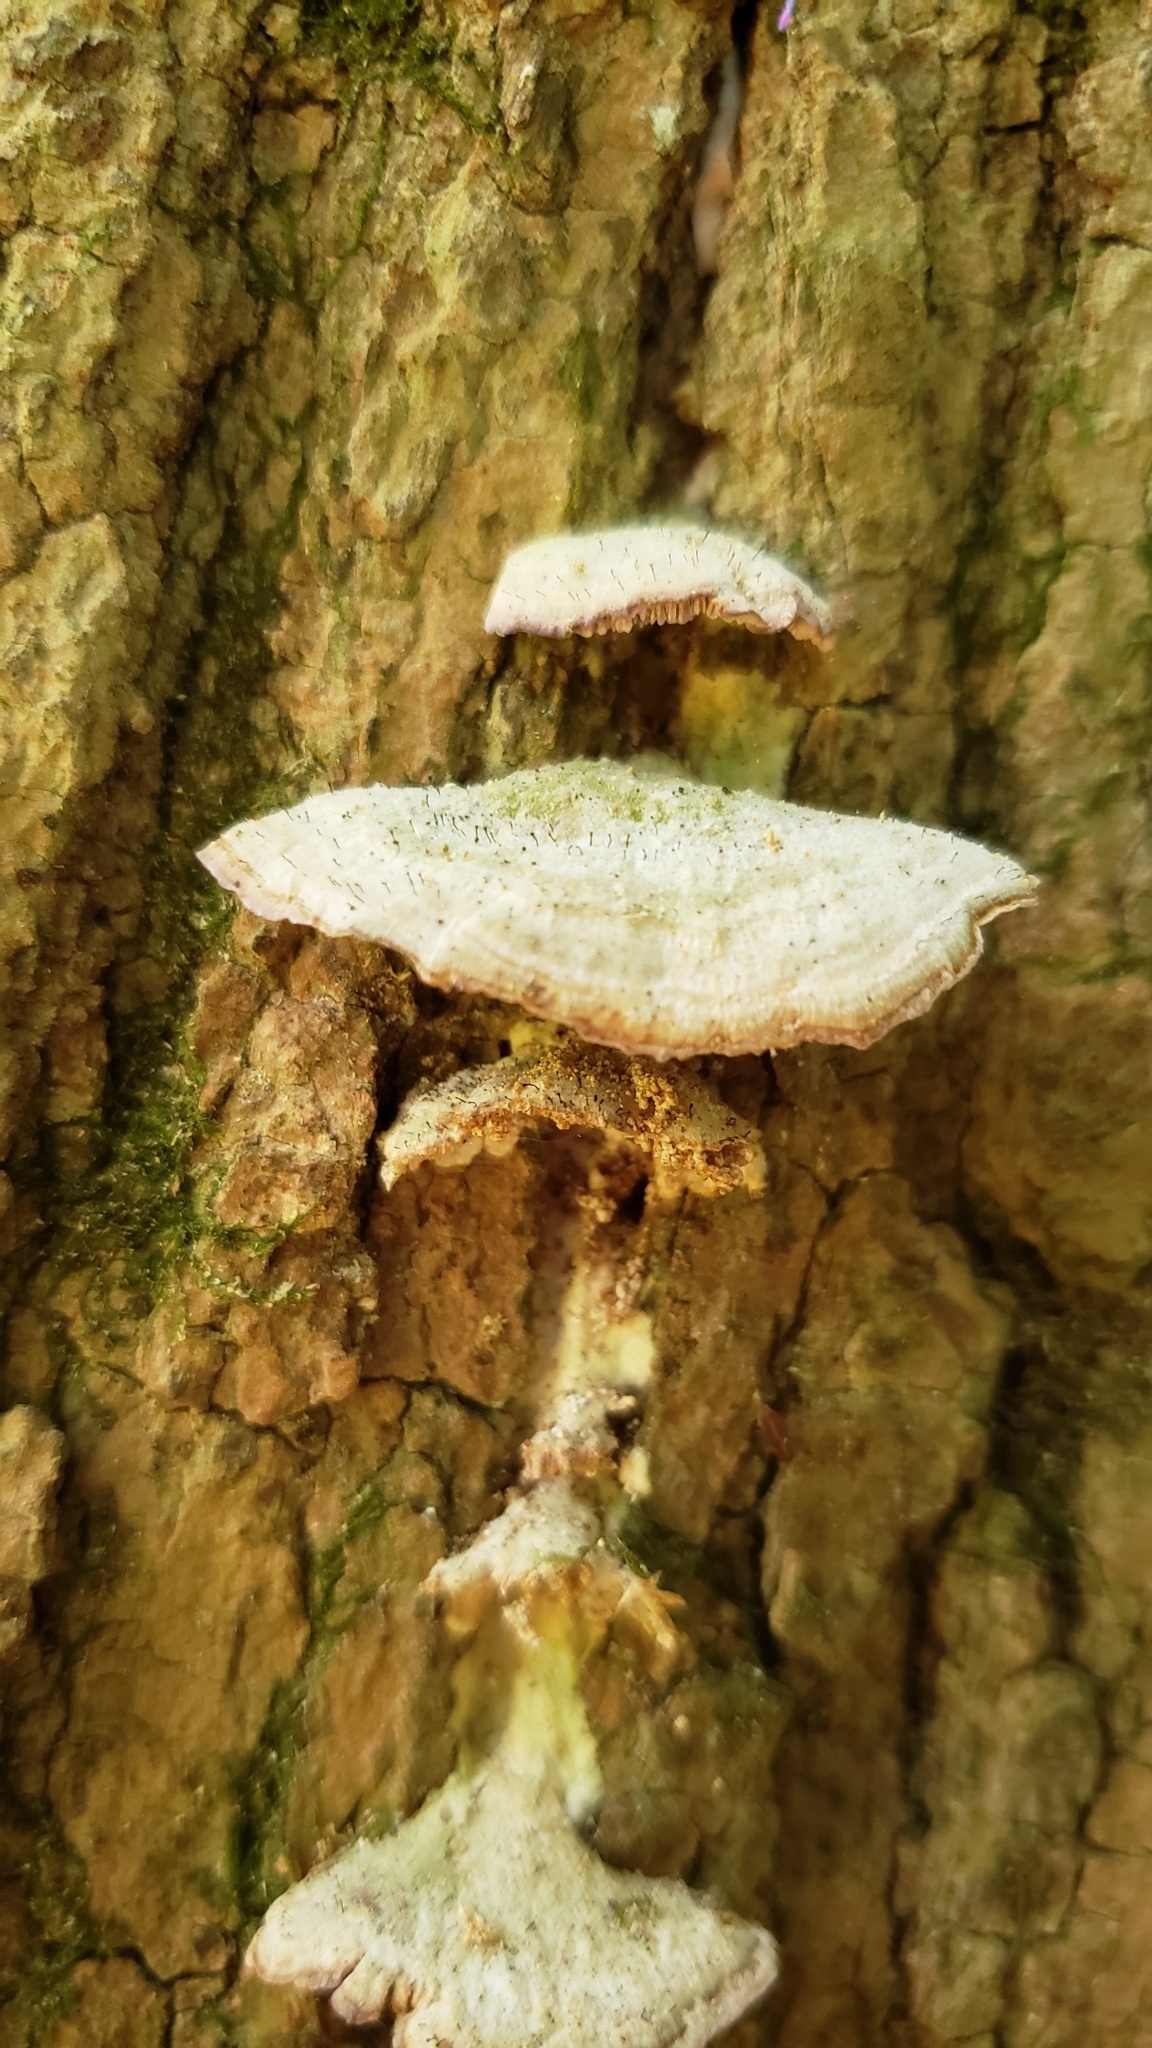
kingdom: Fungi
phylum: Ascomycota
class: Eurotiomycetes
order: Mycocaliciales
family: Mycocaliciaceae
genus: Phaeocalicium
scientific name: Phaeocalicium polyporaeum
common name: Fairy pins
